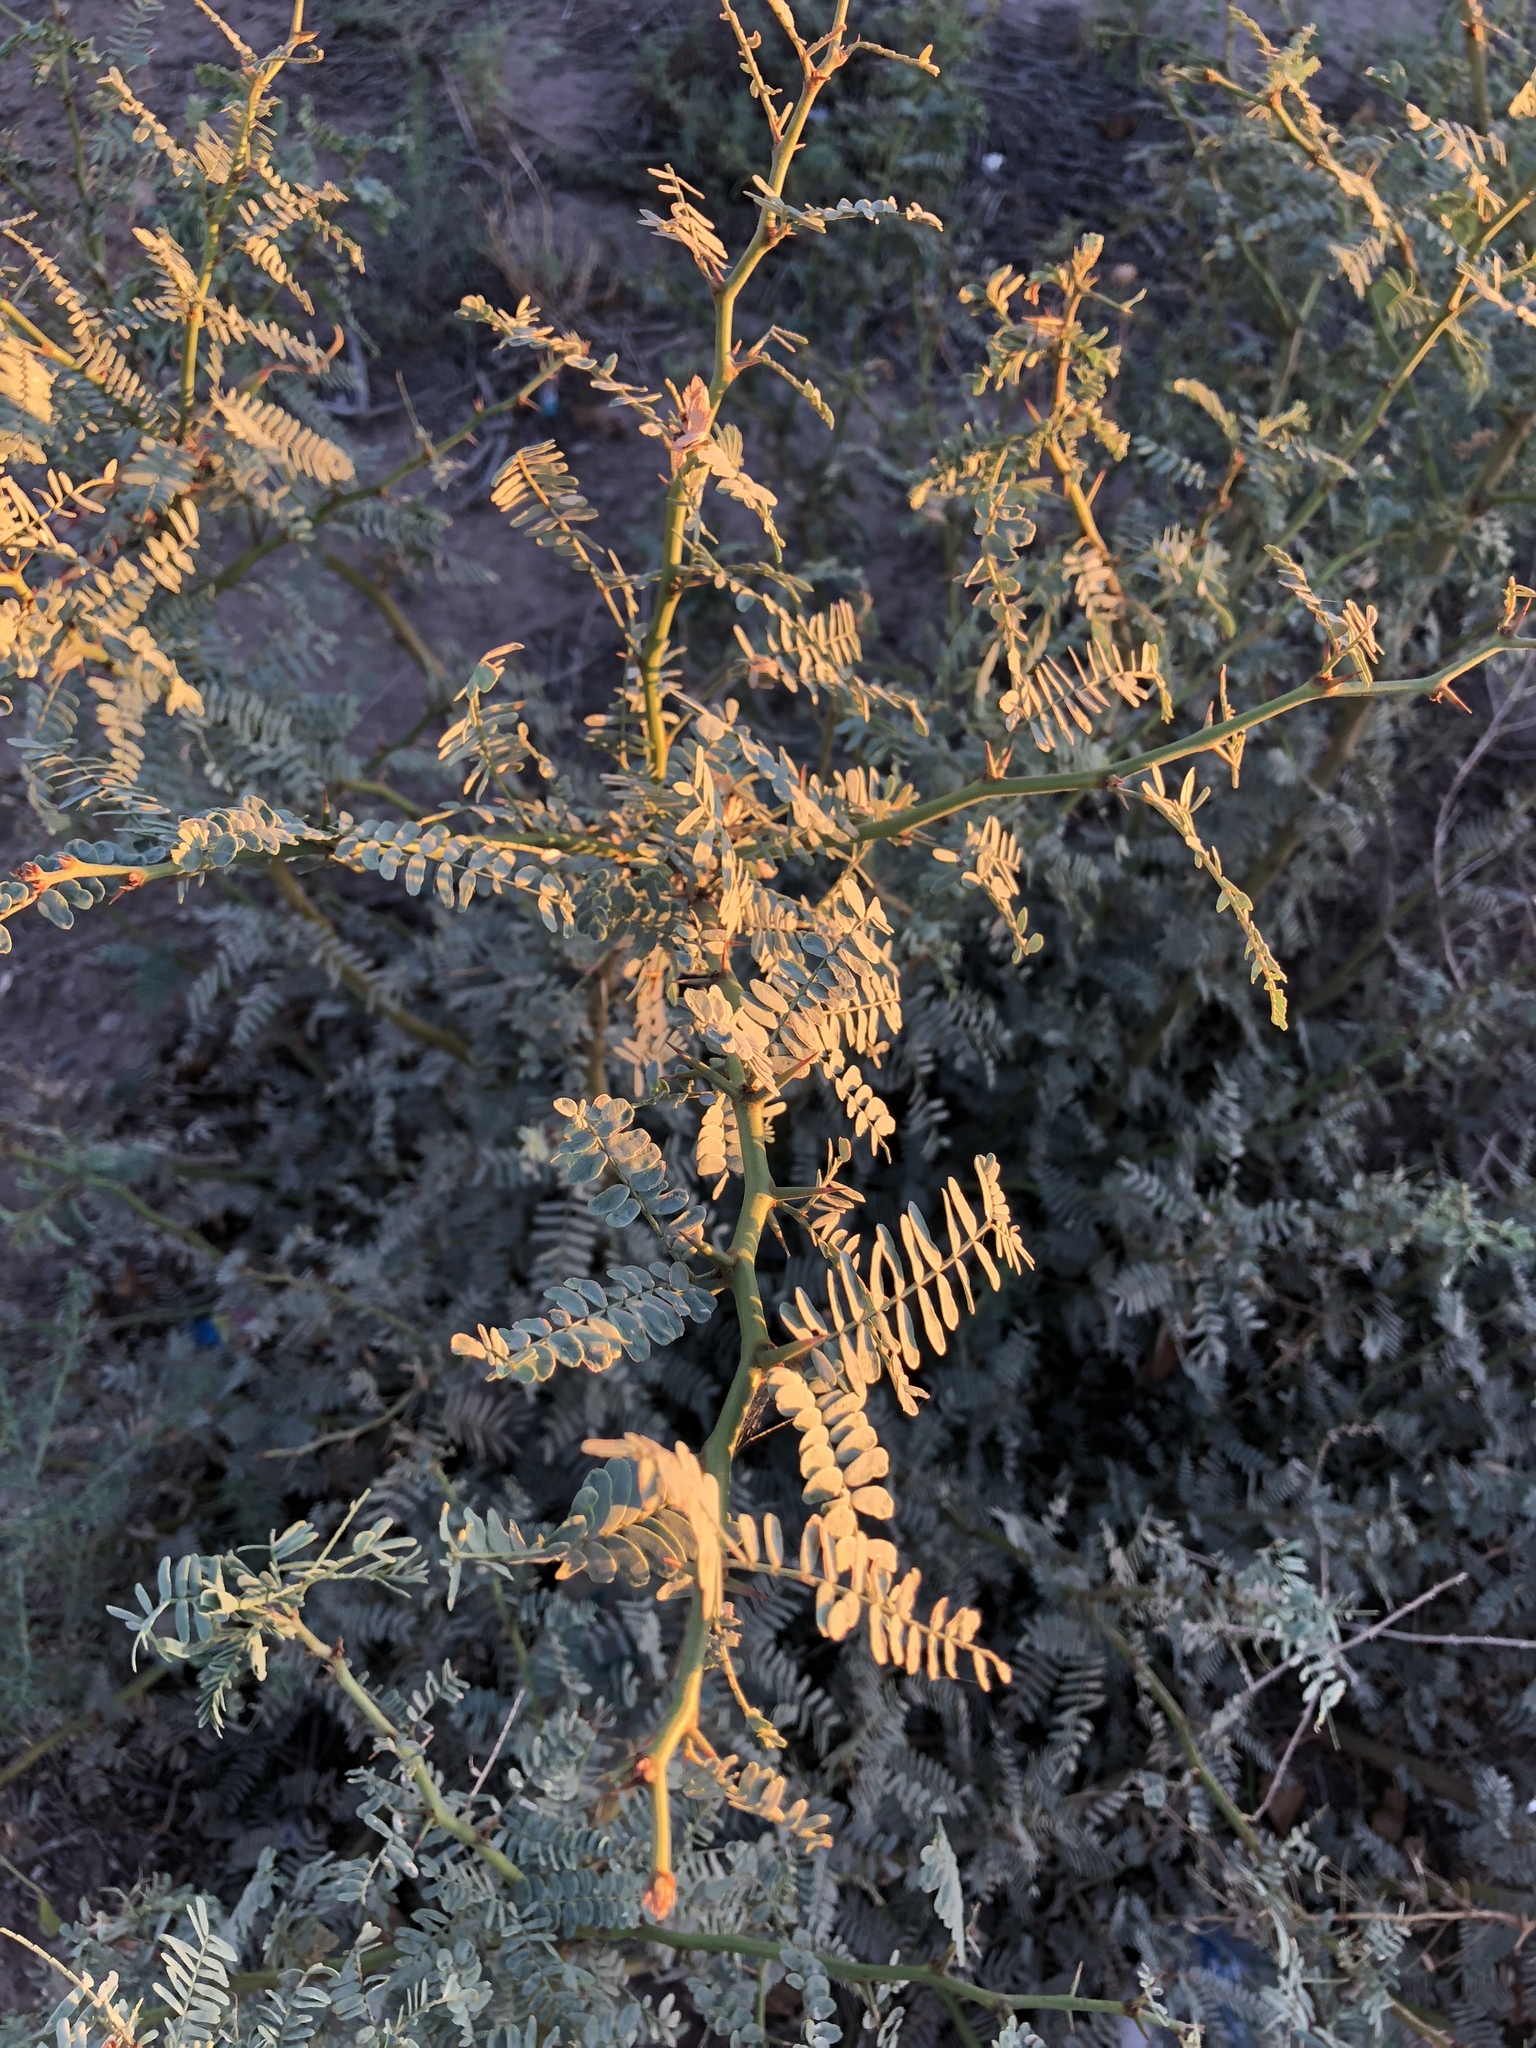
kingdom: Plantae
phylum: Tracheophyta
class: Magnoliopsida
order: Fabales
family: Fabaceae
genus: Prosopis
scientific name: Prosopis glandulosa
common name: Honey mesquite
